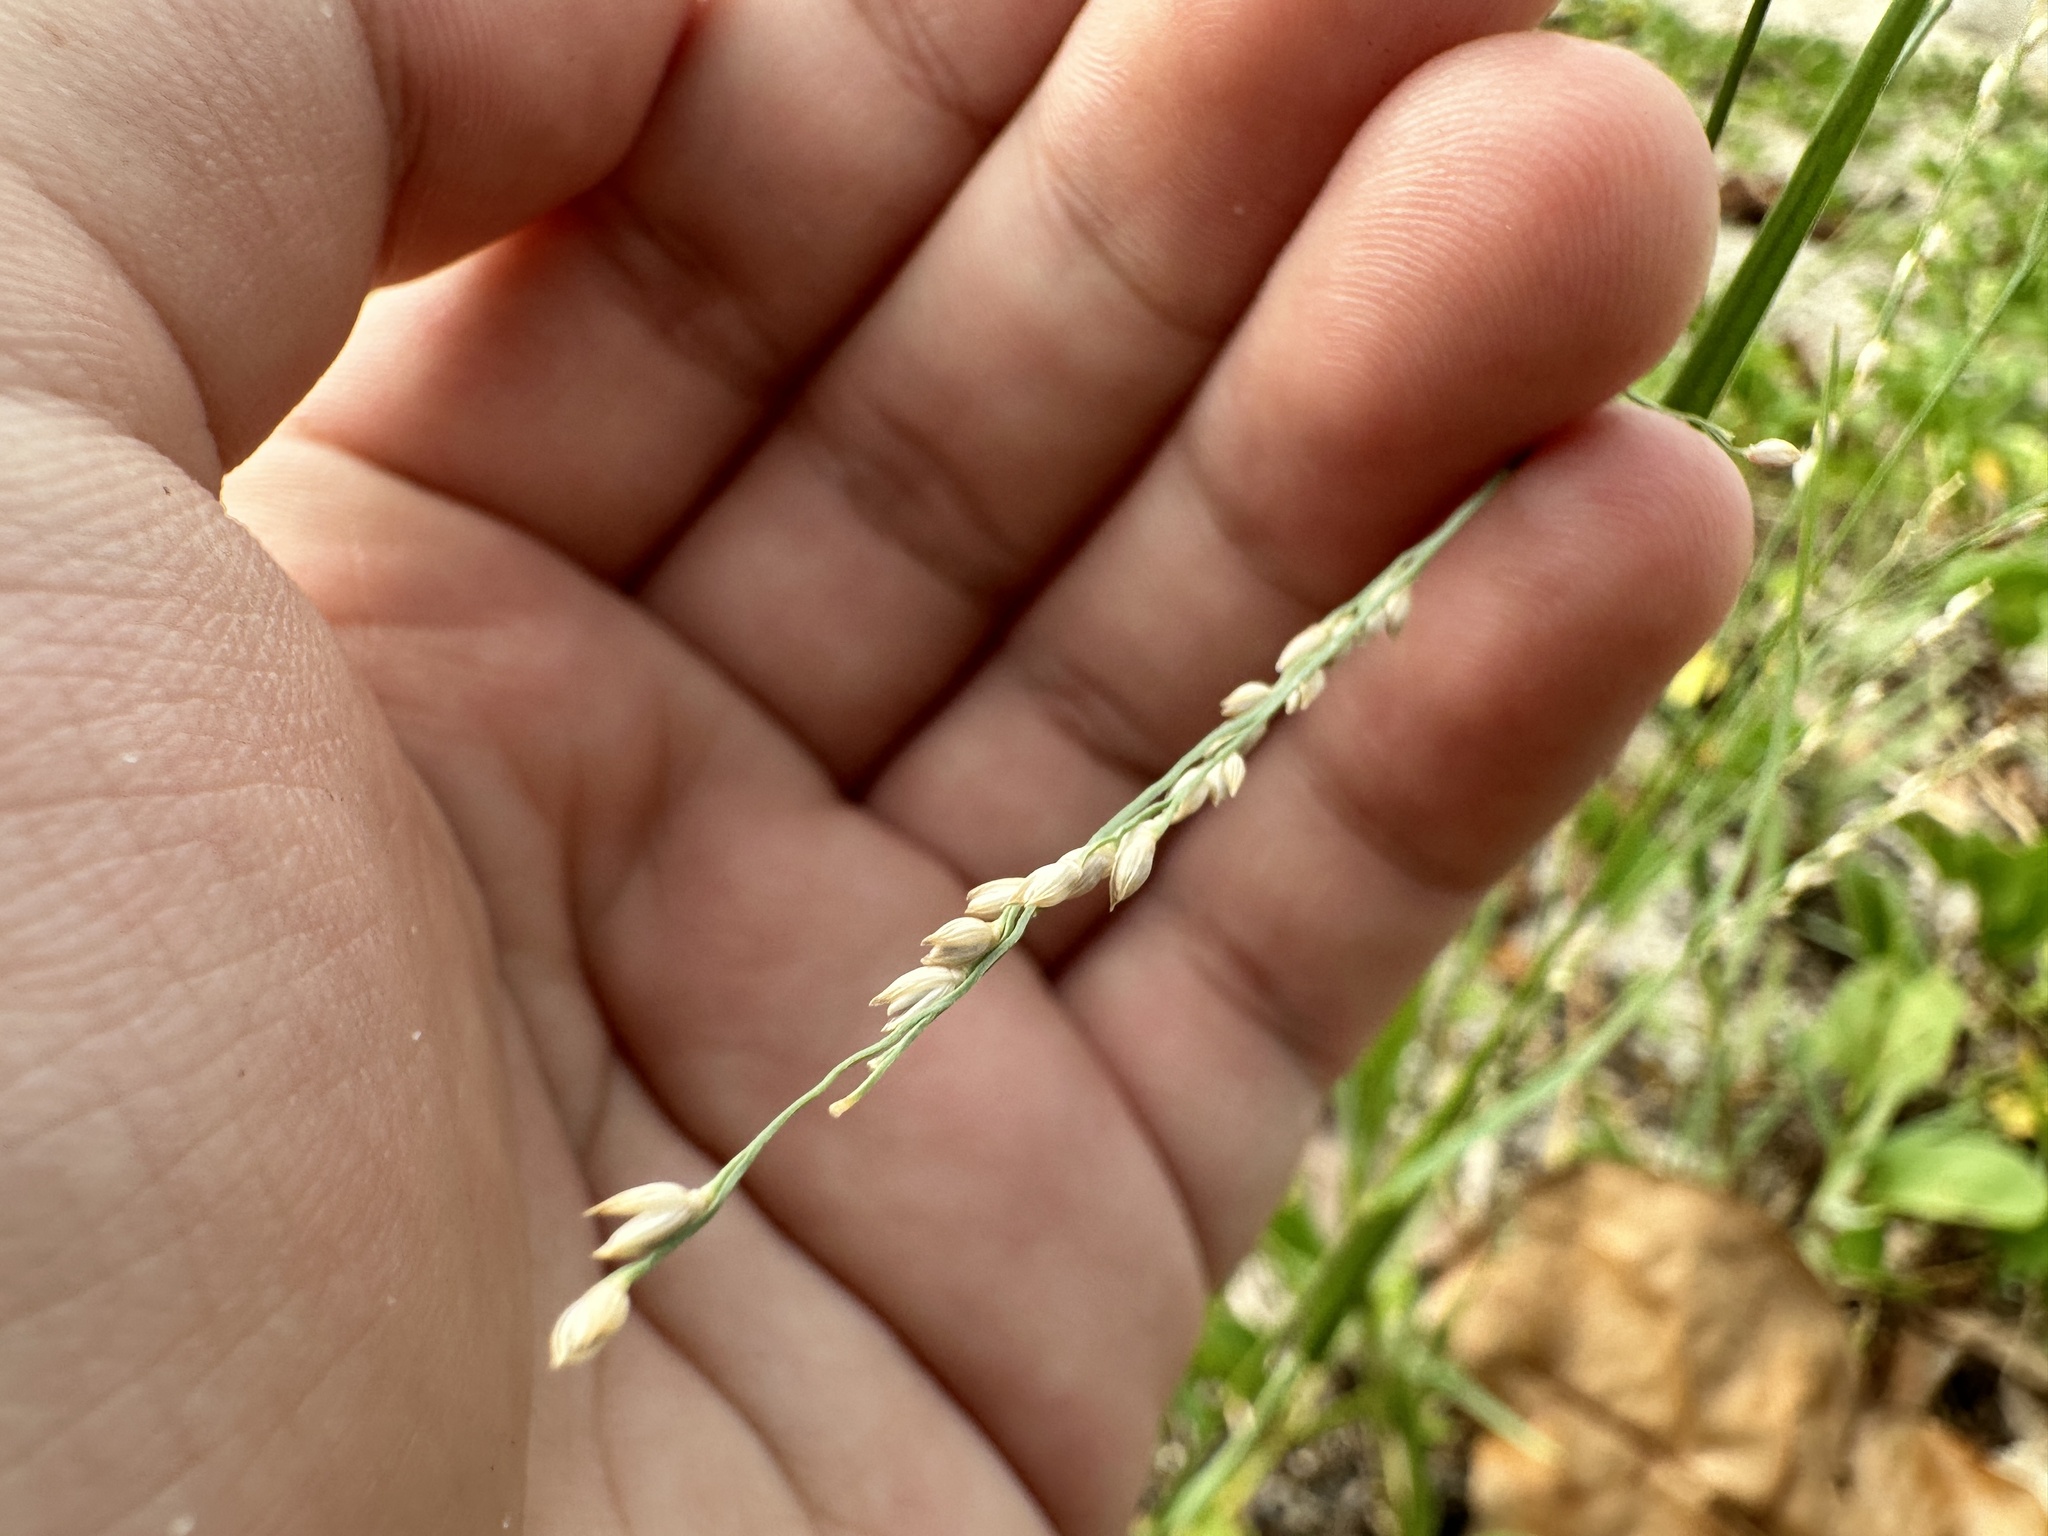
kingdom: Plantae
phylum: Tracheophyta
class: Liliopsida
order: Poales
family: Poaceae
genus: Panicum
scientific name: Panicum repens
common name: Torpedo grass
